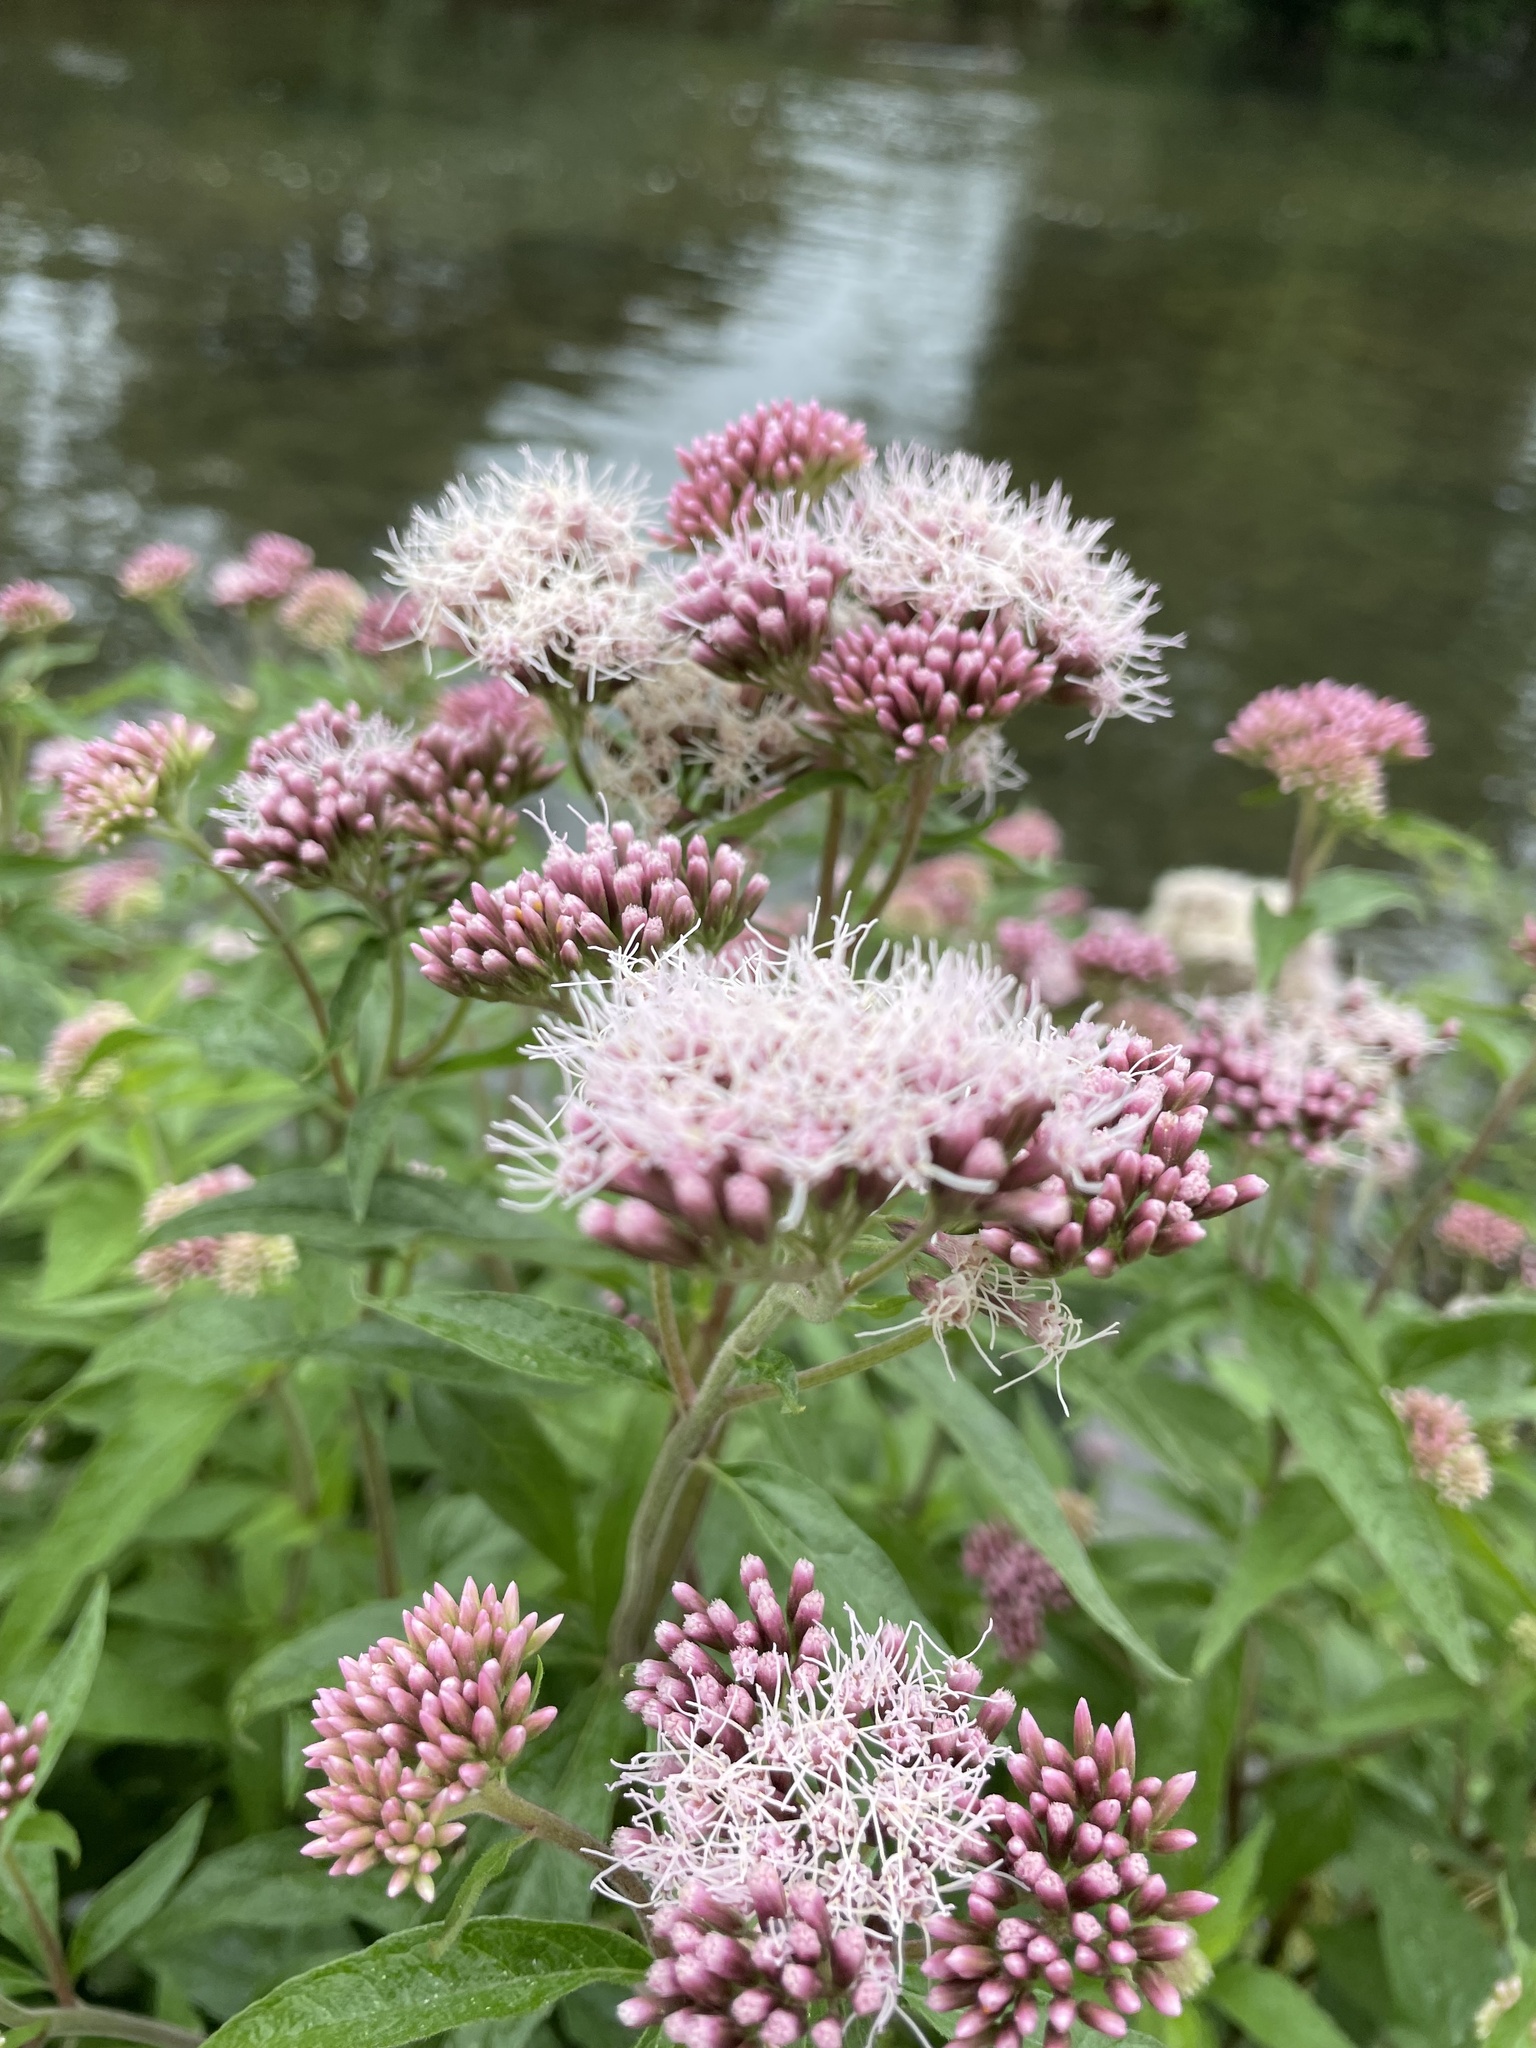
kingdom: Plantae
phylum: Tracheophyta
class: Magnoliopsida
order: Asterales
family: Asteraceae
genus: Eupatorium
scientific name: Eupatorium cannabinum
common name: Hemp-agrimony
